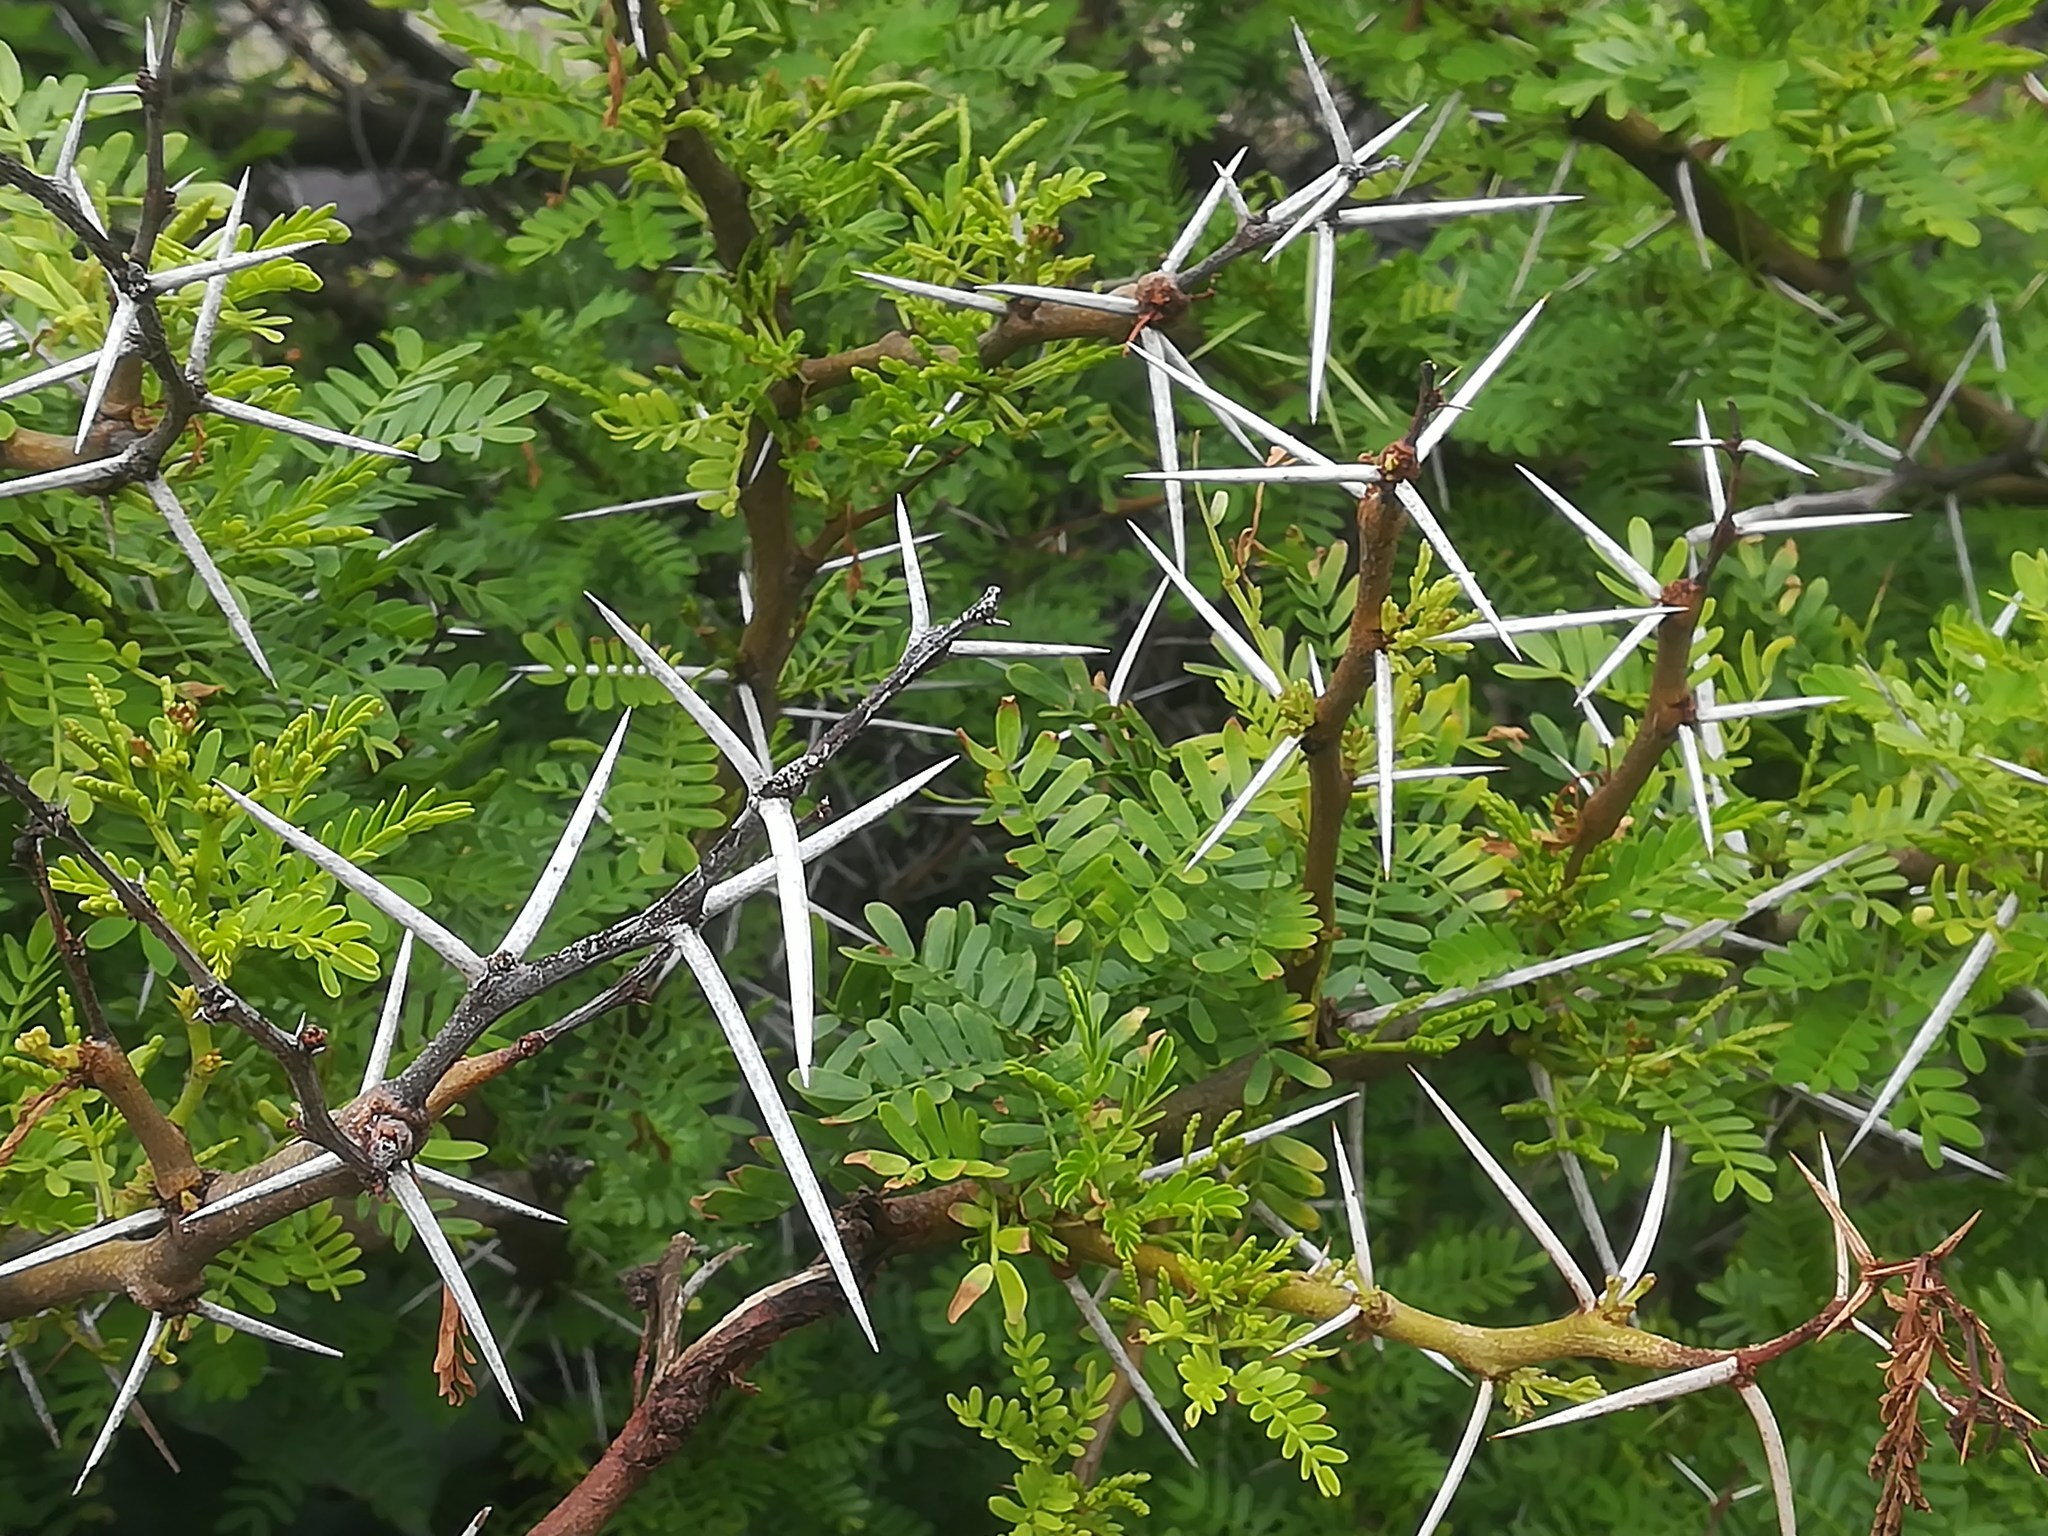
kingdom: Plantae
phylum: Tracheophyta
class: Magnoliopsida
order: Fabales
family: Fabaceae
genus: Vachellia
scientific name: Vachellia farnesiana
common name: Sweet acacia
